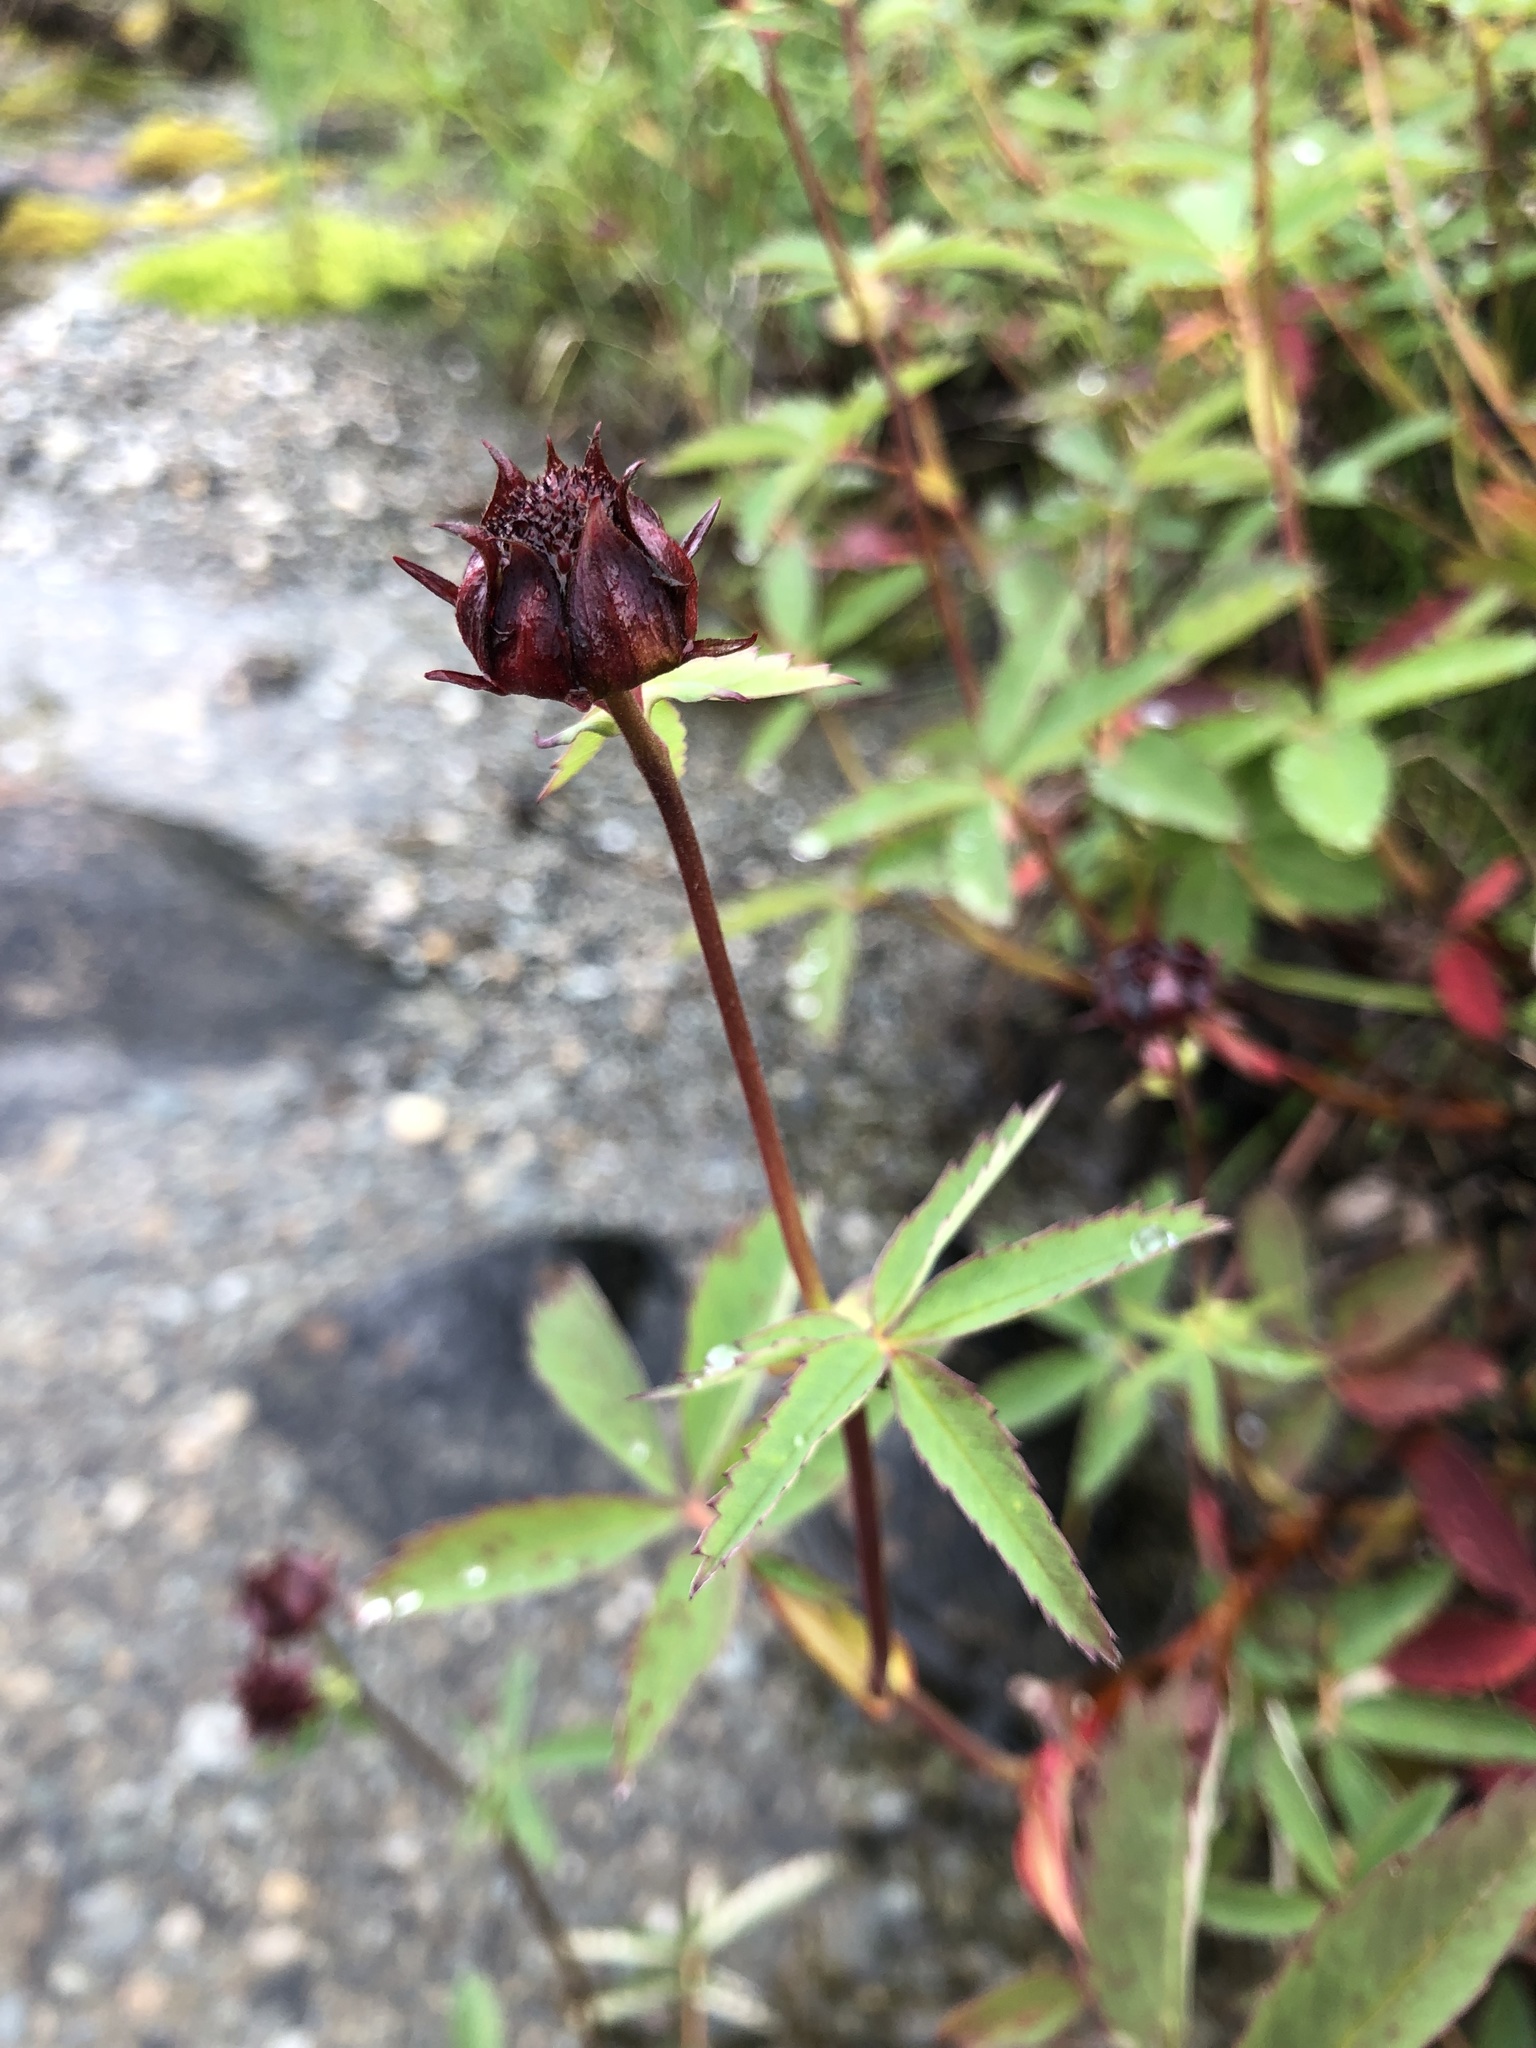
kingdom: Plantae
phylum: Tracheophyta
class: Magnoliopsida
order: Rosales
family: Rosaceae
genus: Comarum
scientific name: Comarum palustre
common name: Marsh cinquefoil
